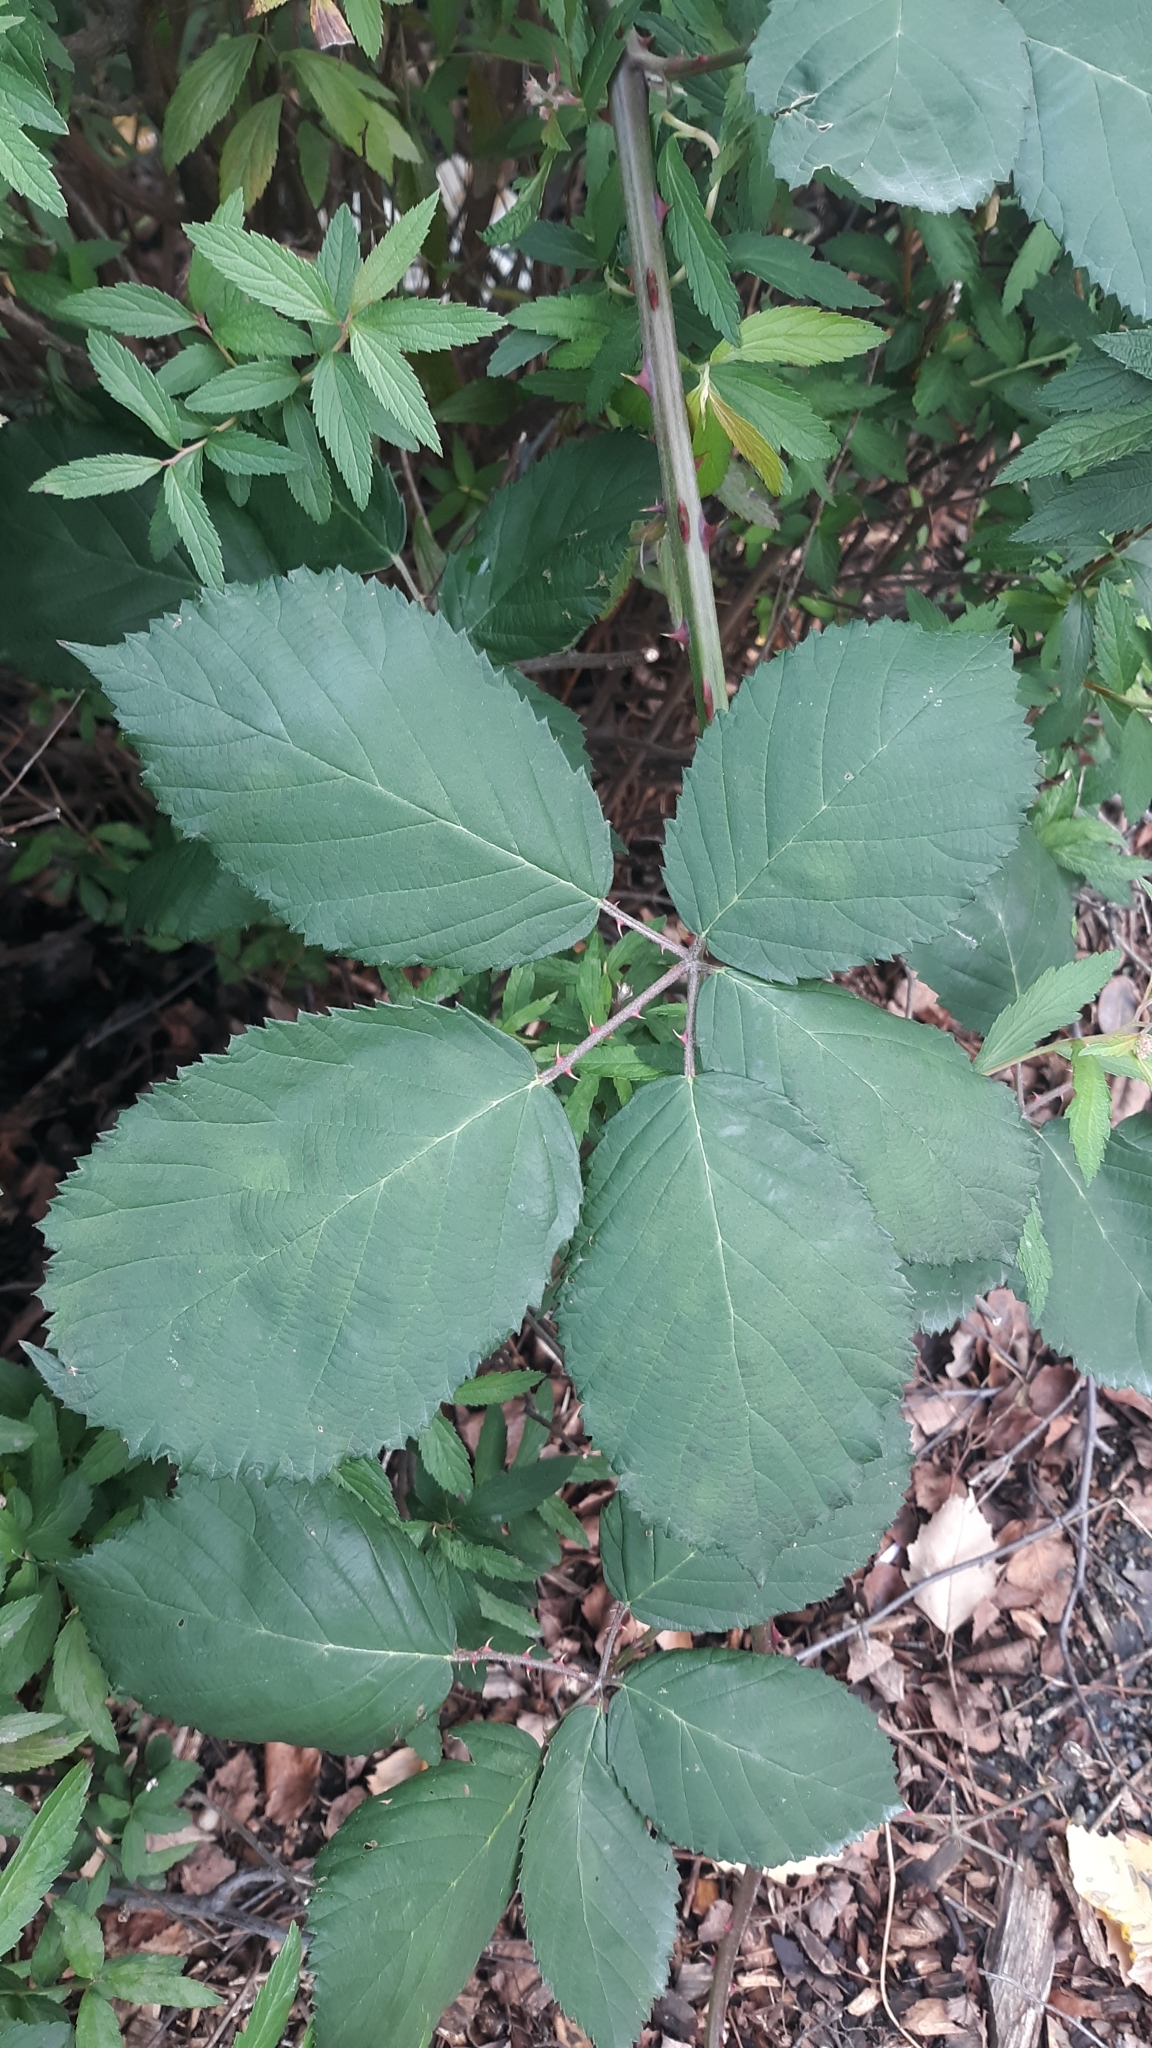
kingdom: Plantae
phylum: Tracheophyta
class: Magnoliopsida
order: Rosales
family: Rosaceae
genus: Rubus
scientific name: Rubus bifrons
